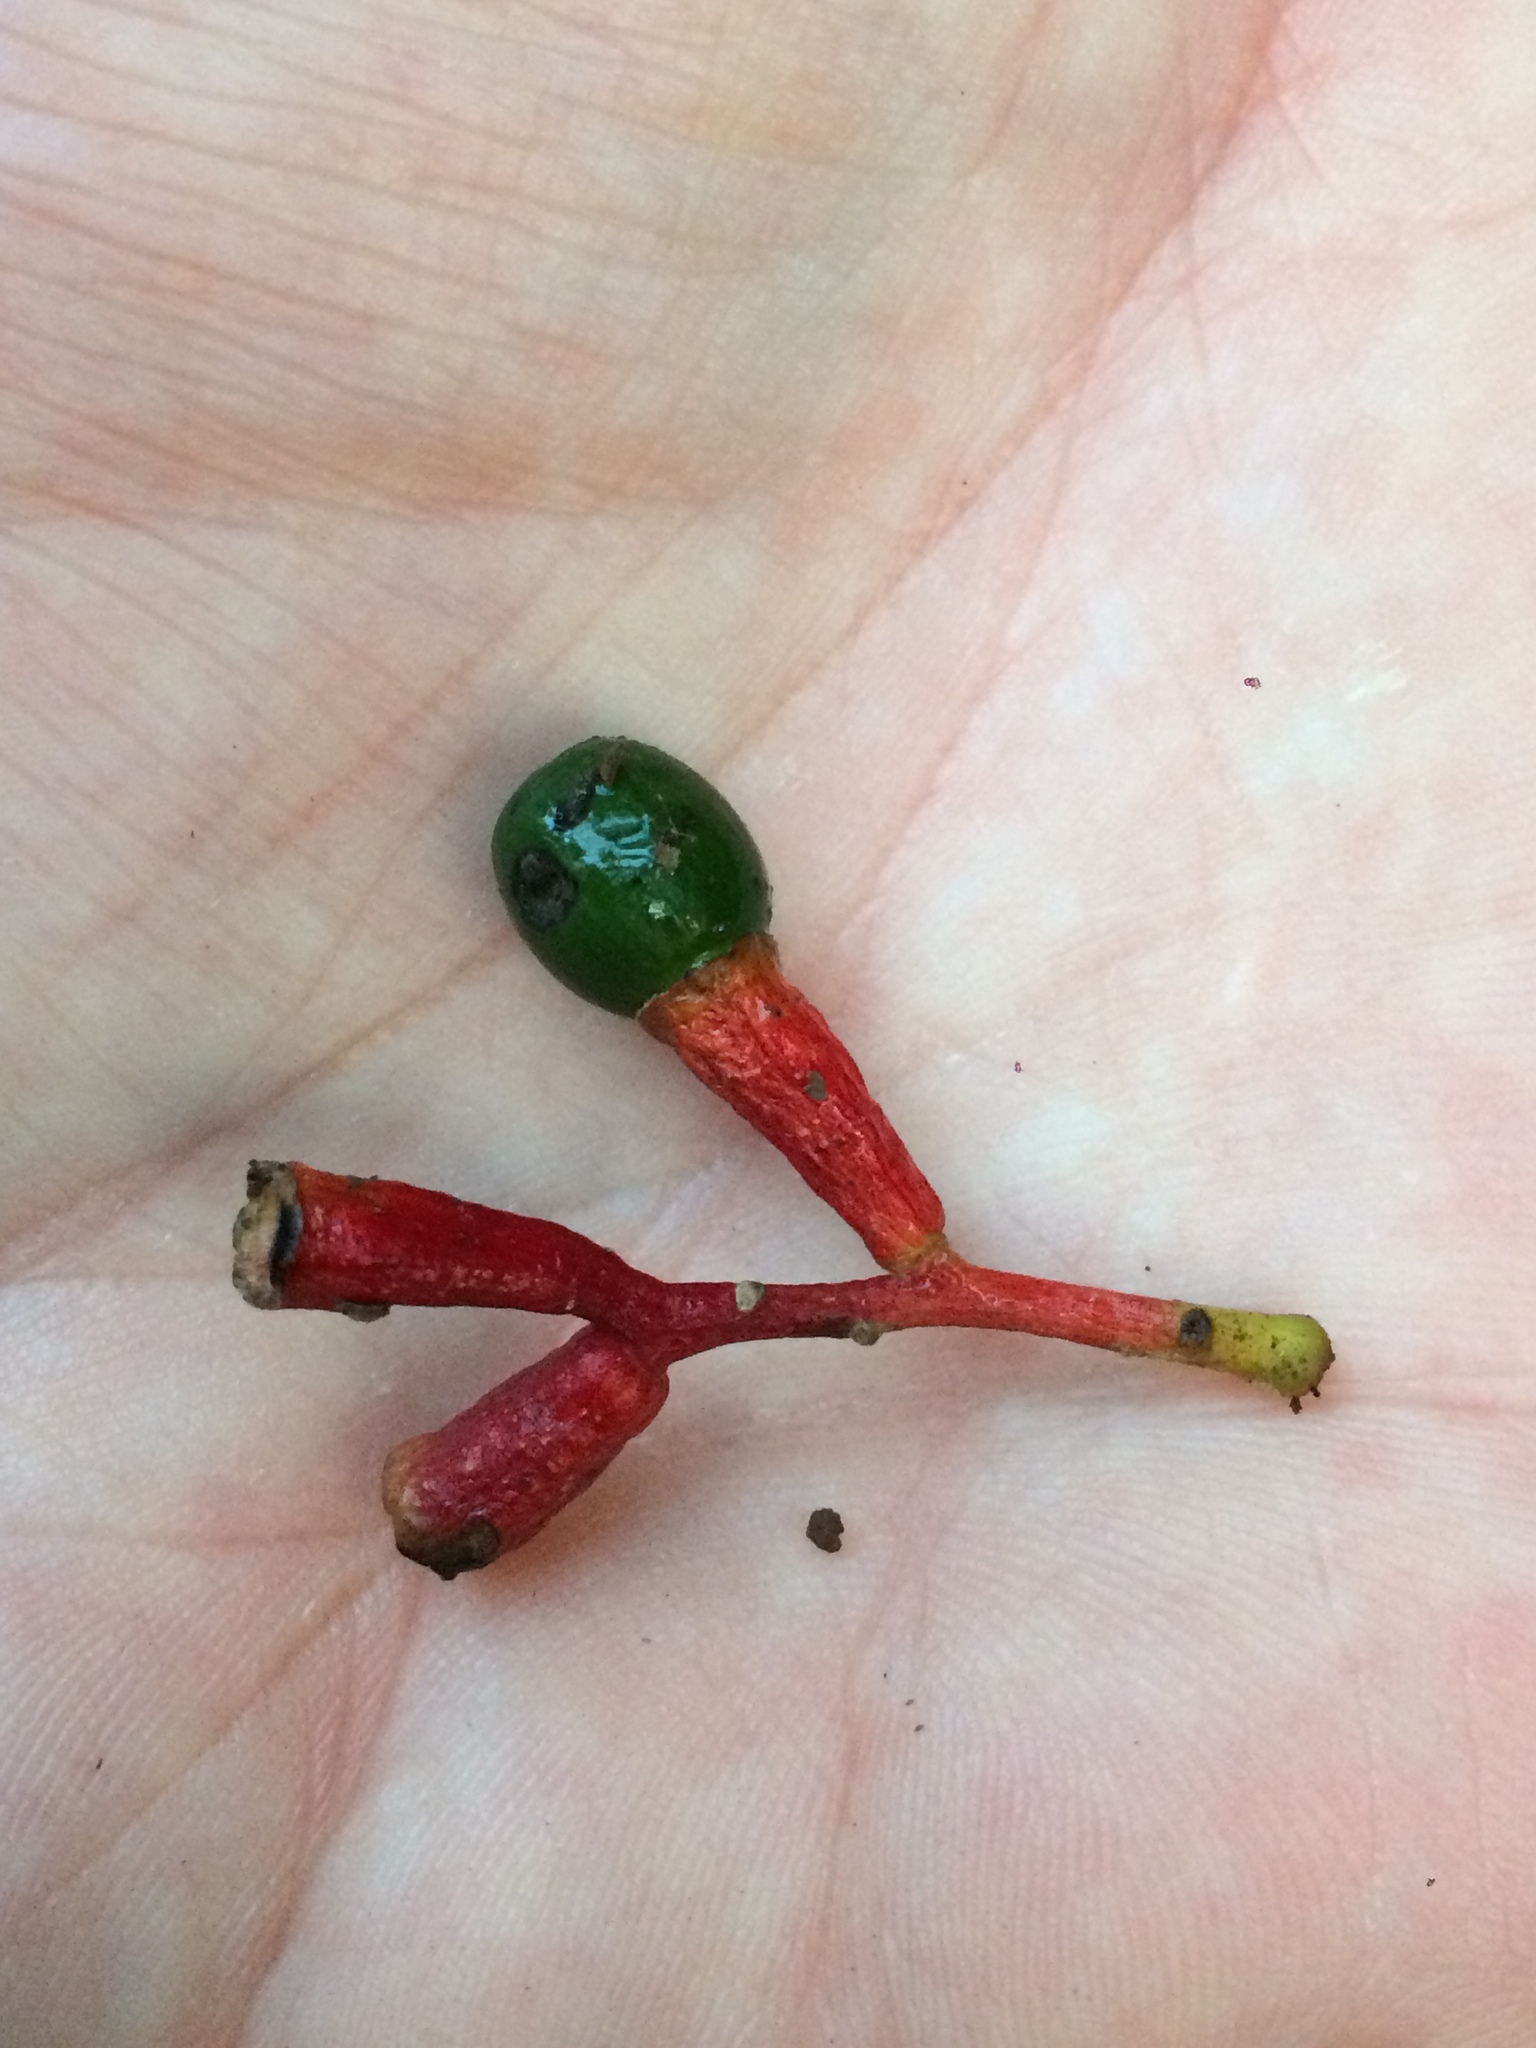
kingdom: Plantae
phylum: Tracheophyta
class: Magnoliopsida
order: Laurales
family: Lauraceae
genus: Ocotea
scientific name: Ocotea puberula
